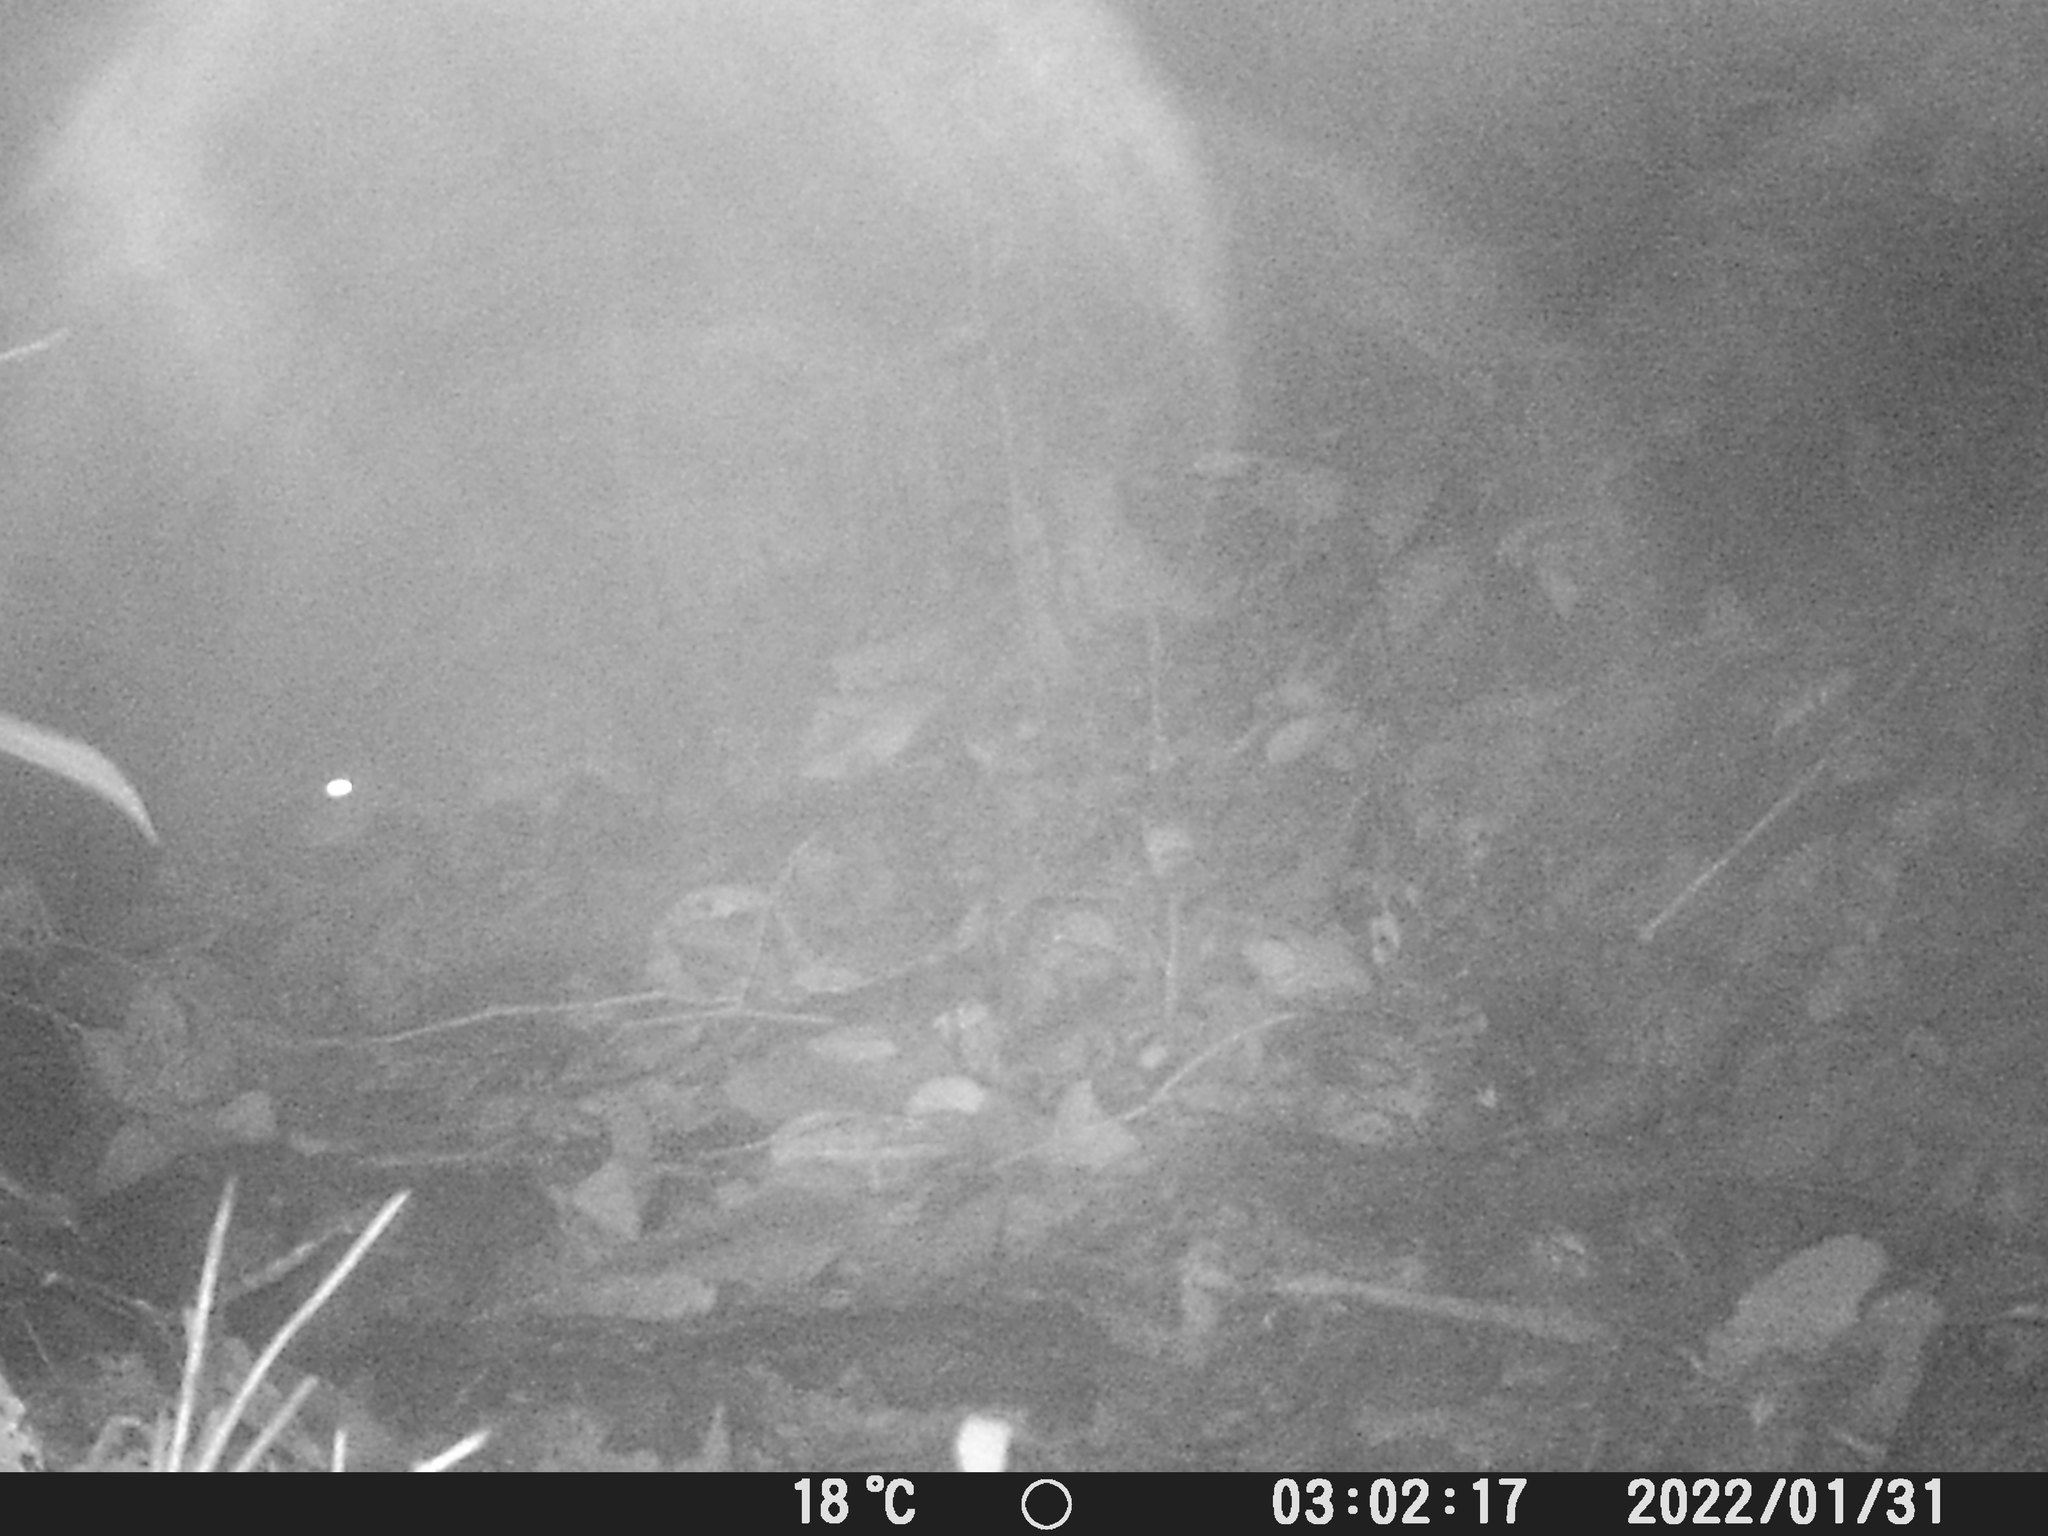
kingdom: Animalia
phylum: Chordata
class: Mammalia
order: Rodentia
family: Cuniculidae
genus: Cuniculus
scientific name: Cuniculus paca
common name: Lowland paca
